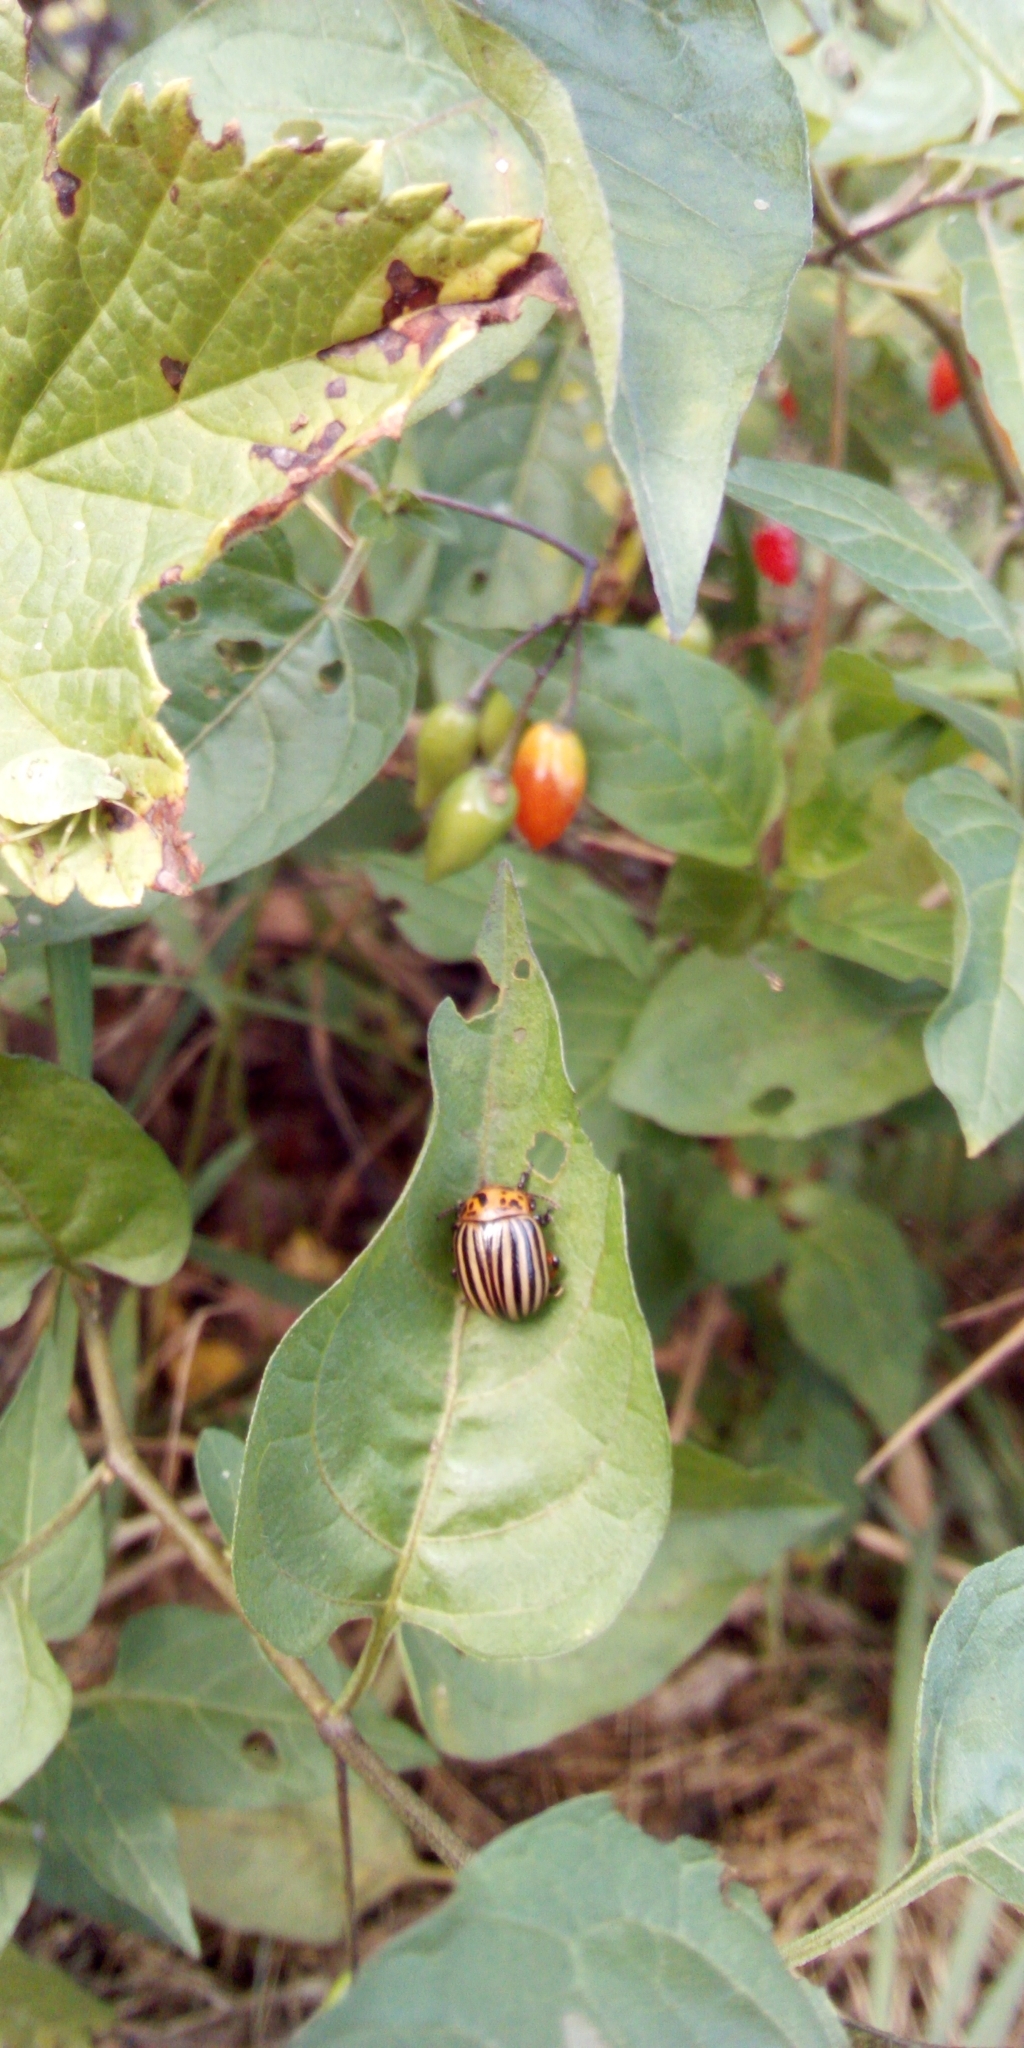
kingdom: Animalia
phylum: Arthropoda
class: Insecta
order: Coleoptera
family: Chrysomelidae
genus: Leptinotarsa
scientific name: Leptinotarsa decemlineata
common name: Colorado potato beetle
